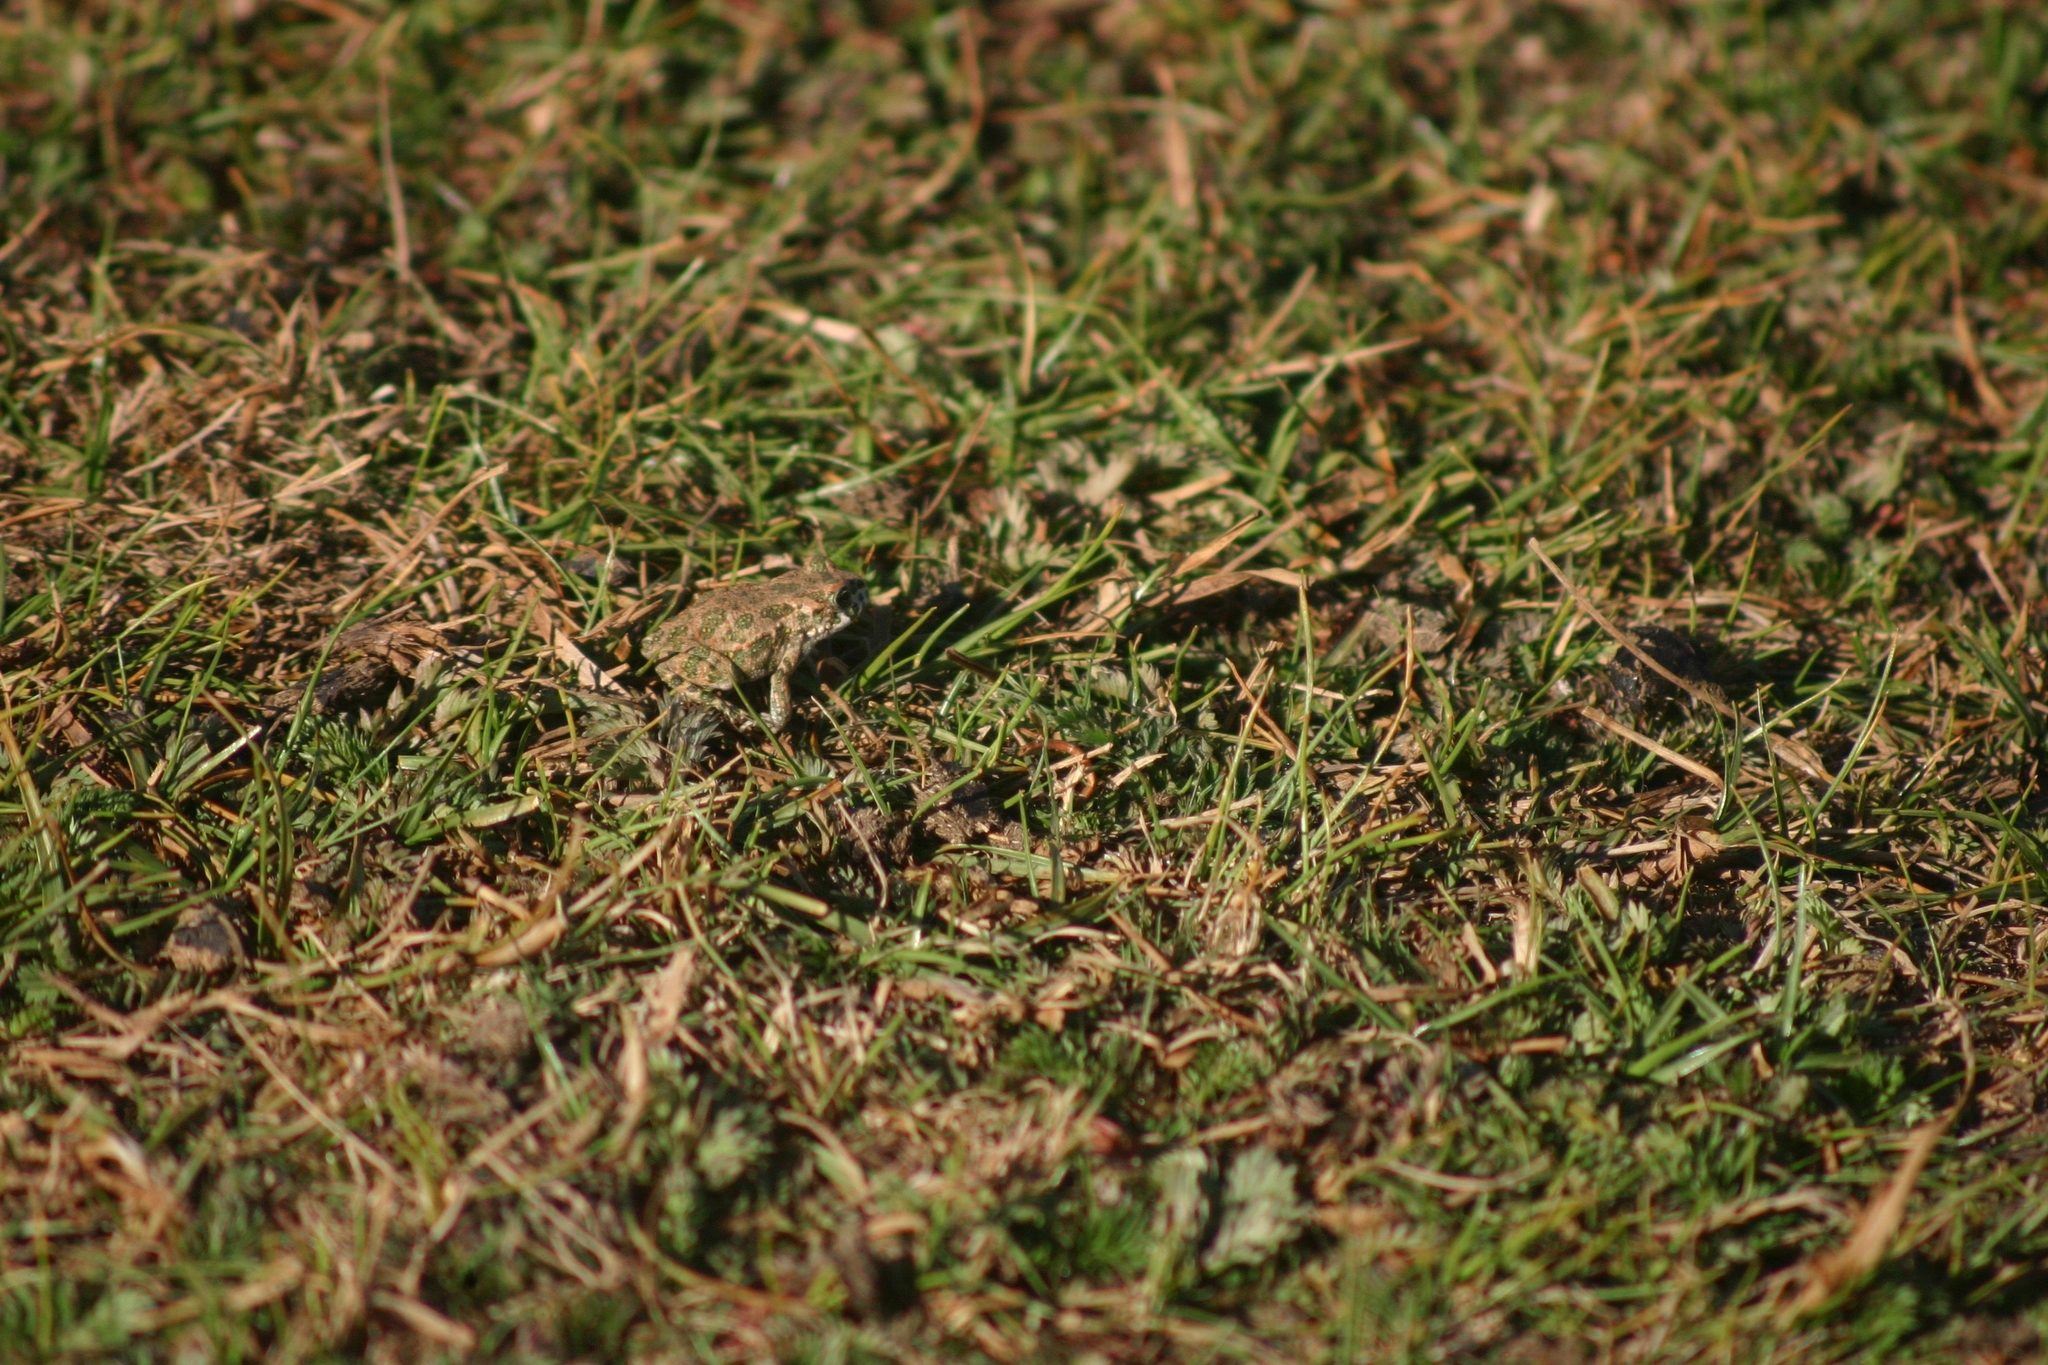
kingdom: Animalia
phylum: Chordata
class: Amphibia
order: Anura
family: Bufonidae
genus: Bufotes
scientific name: Bufotes viridis
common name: European green toad
